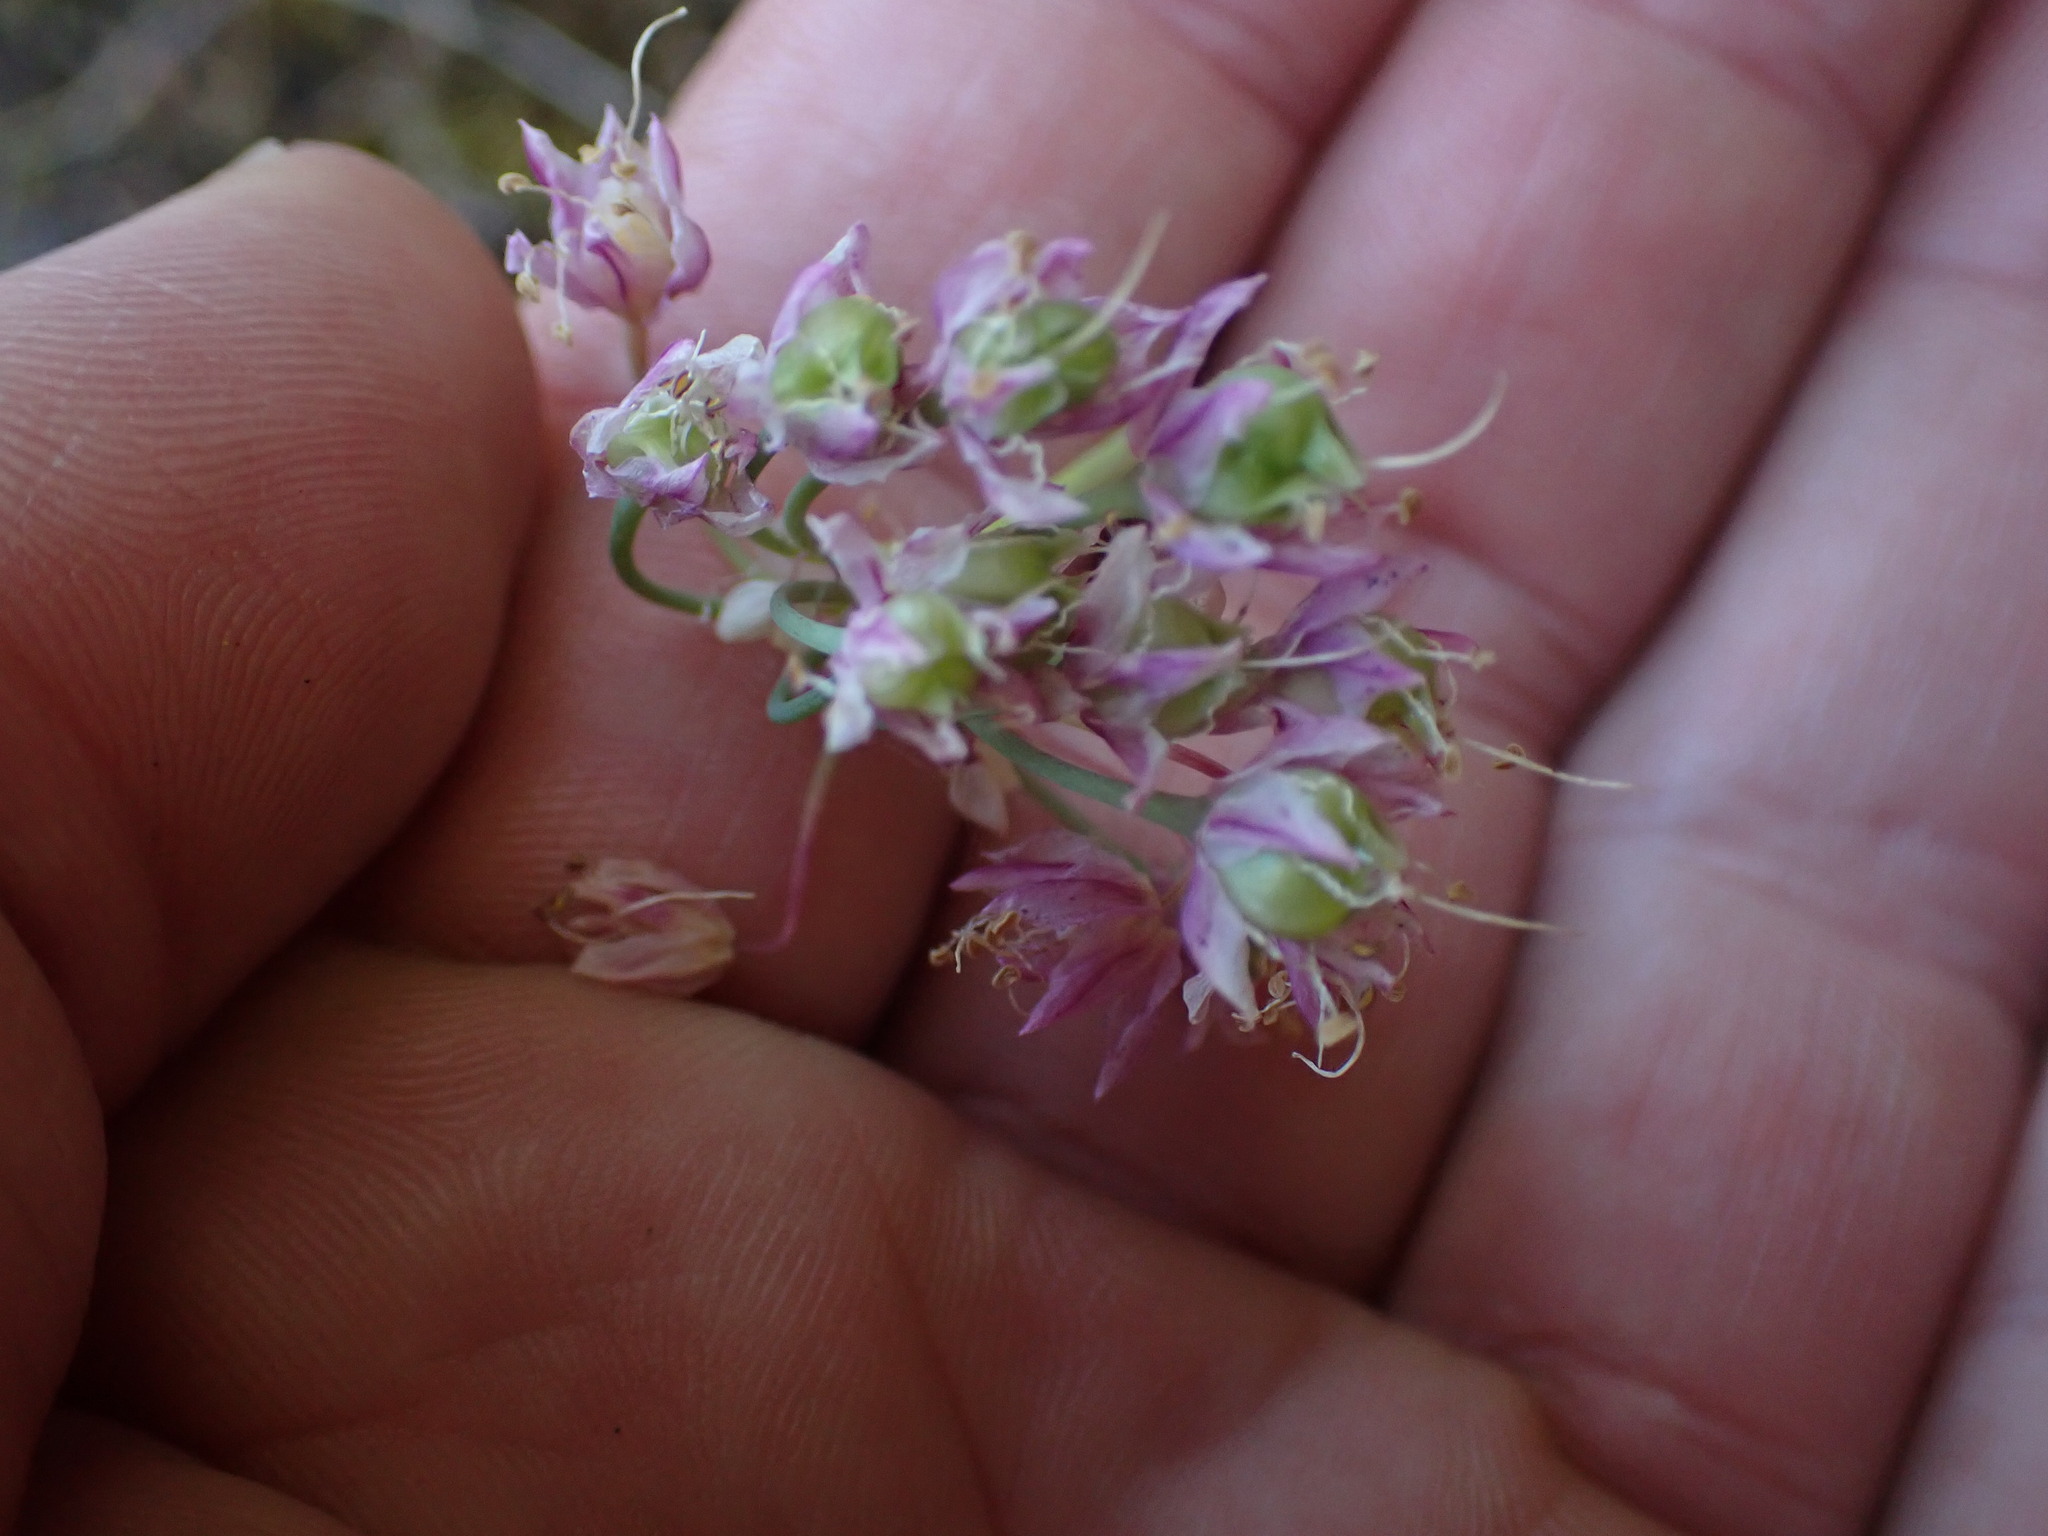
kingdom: Plantae
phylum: Tracheophyta
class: Liliopsida
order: Asparagales
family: Amaryllidaceae
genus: Allium
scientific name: Allium cernuum
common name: Nodding onion
